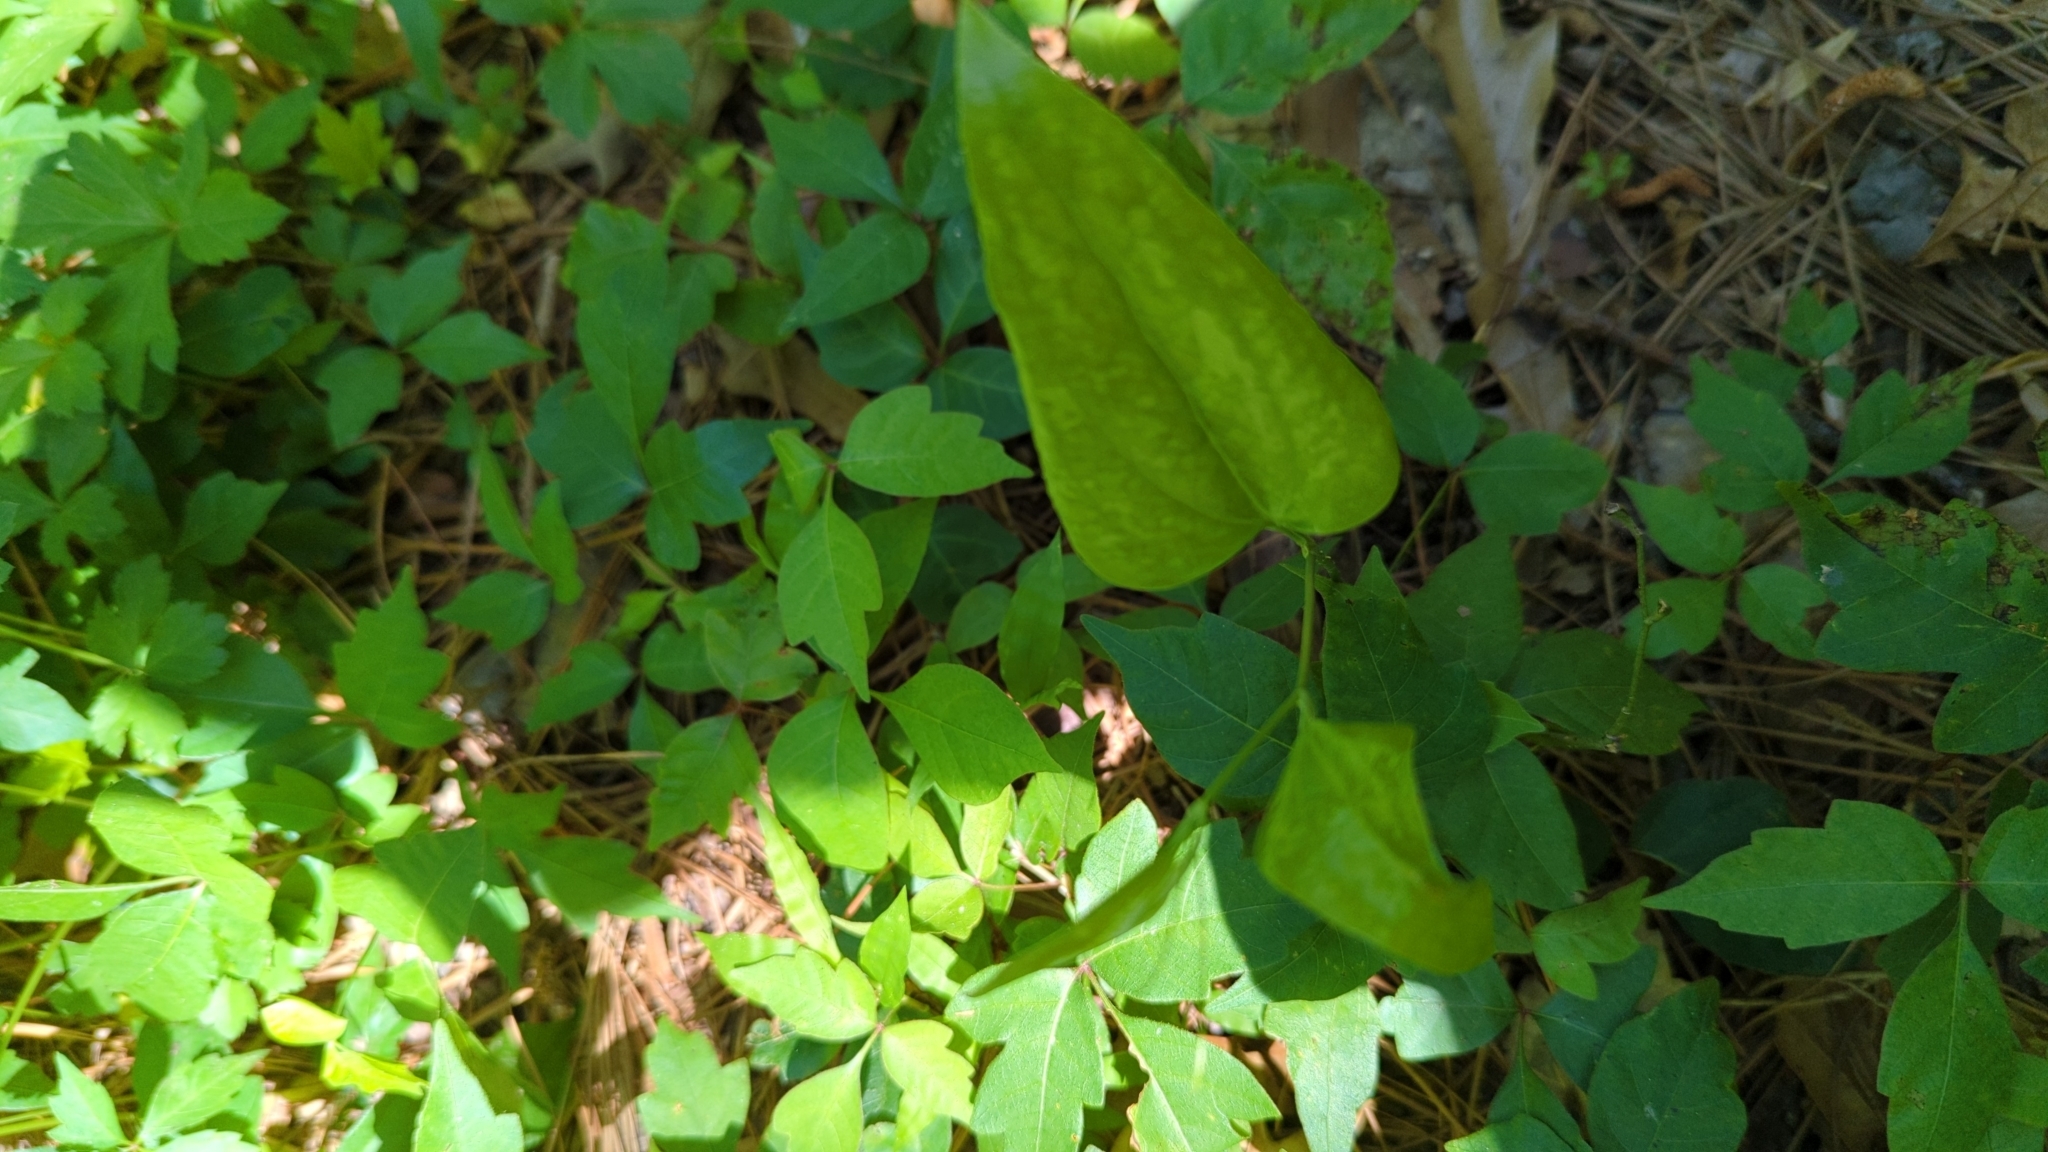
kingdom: Plantae
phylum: Tracheophyta
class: Liliopsida
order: Liliales
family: Smilacaceae
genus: Smilax
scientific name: Smilax maritima
